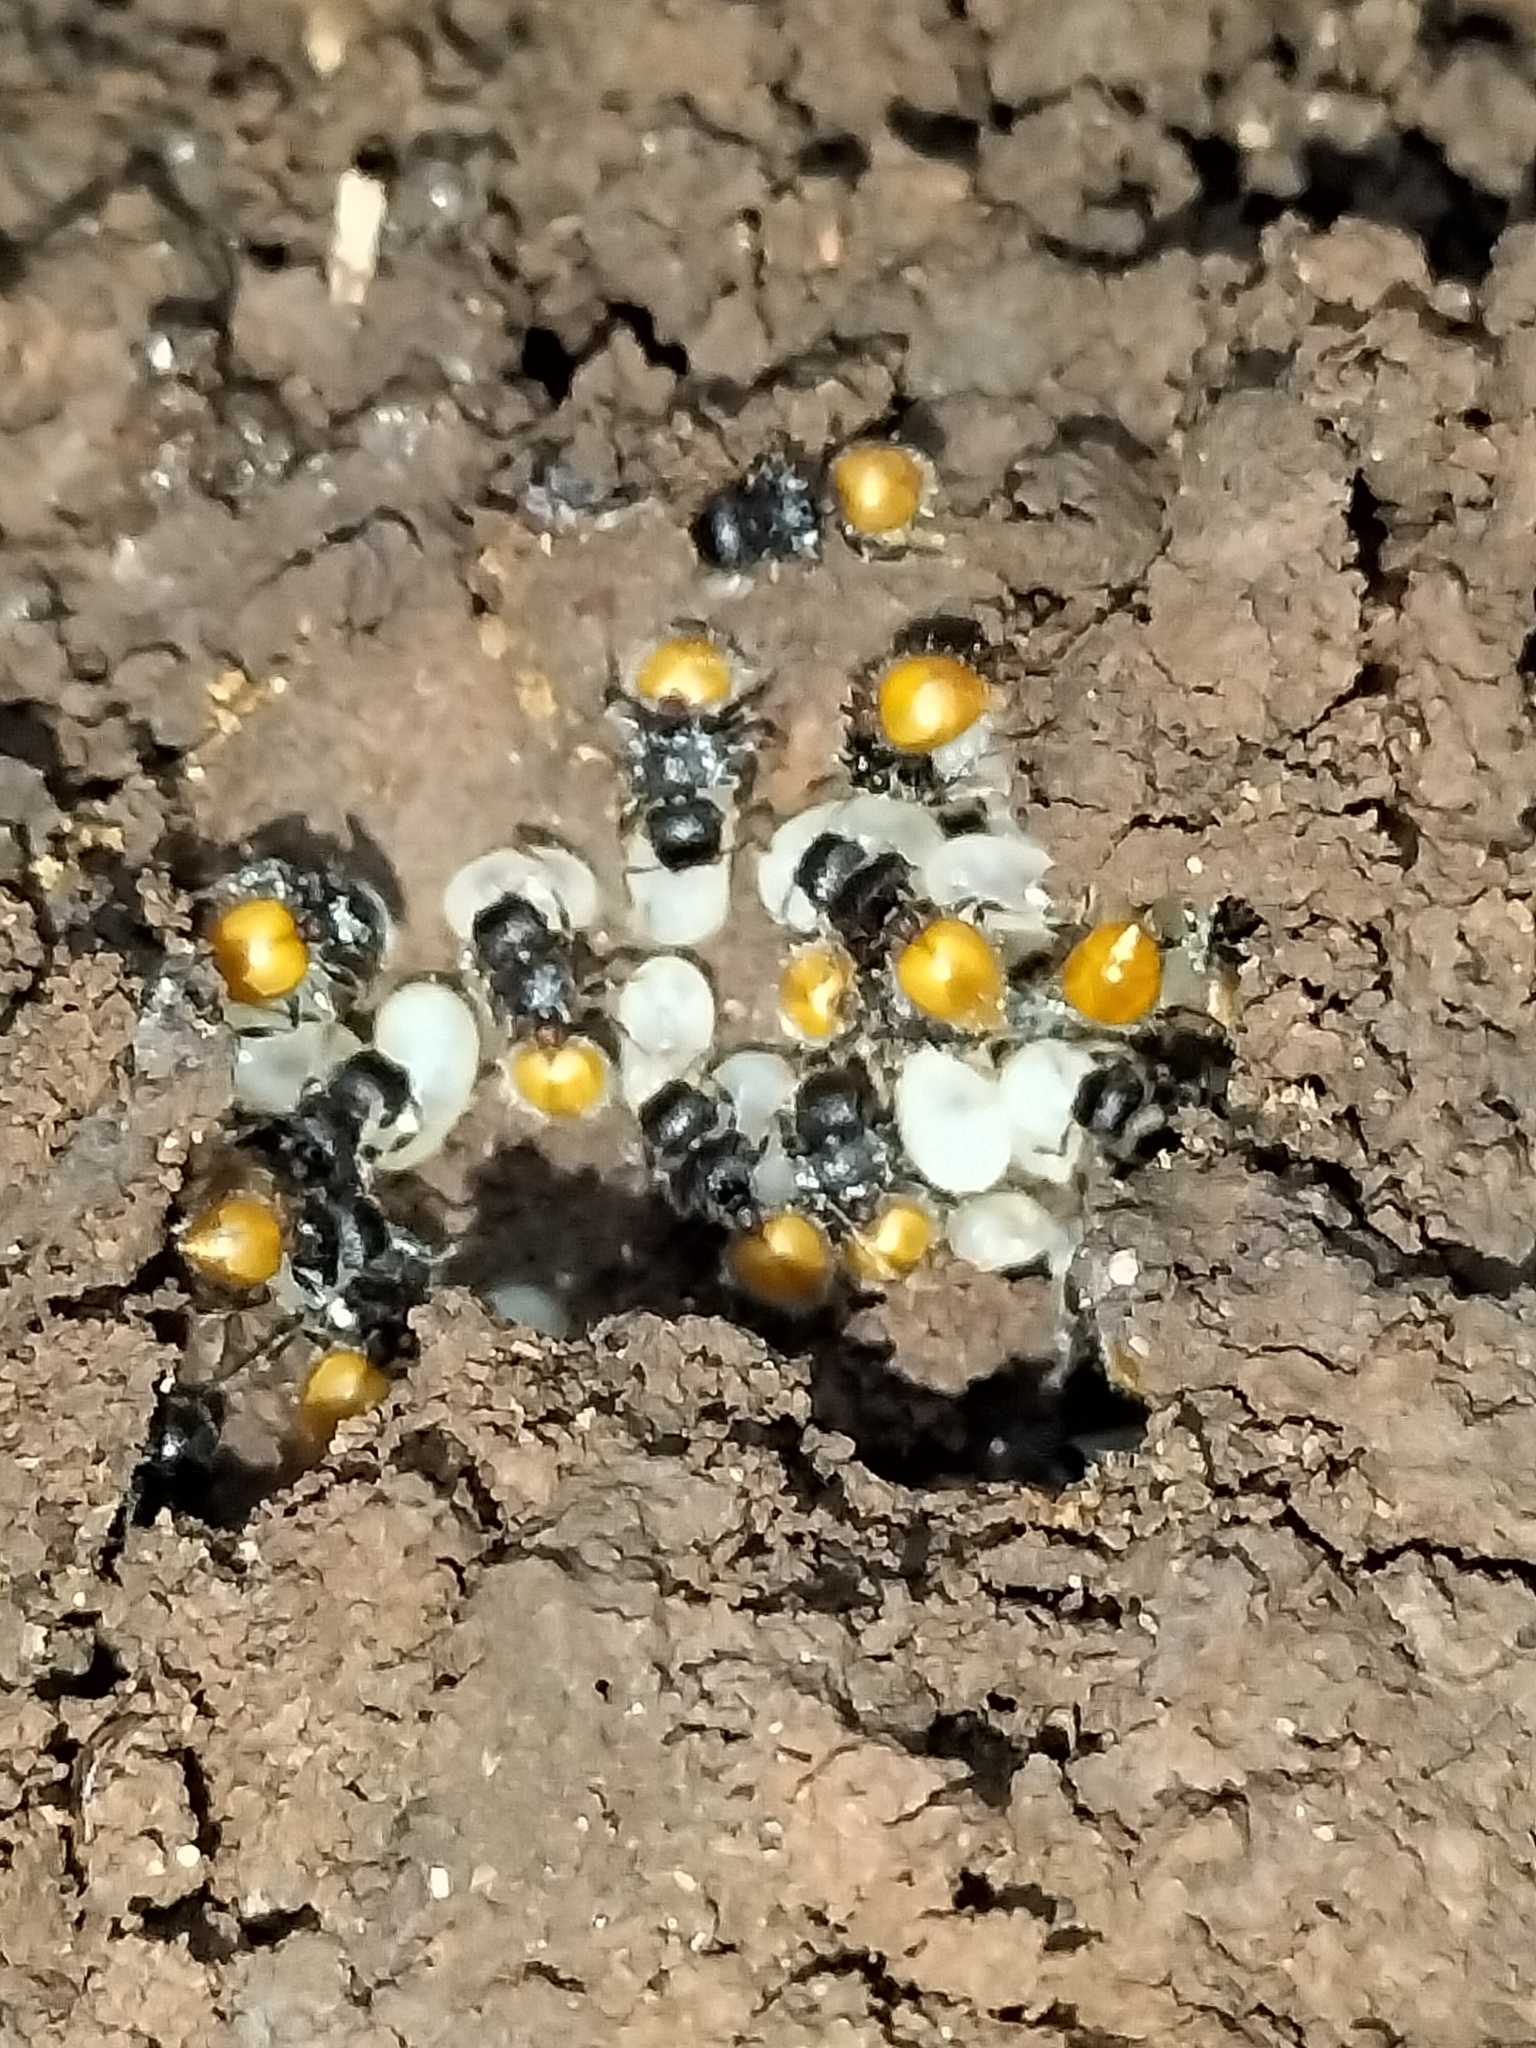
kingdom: Animalia
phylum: Arthropoda
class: Insecta
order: Hymenoptera
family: Formicidae
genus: Meranoplus
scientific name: Meranoplus hirsutus
